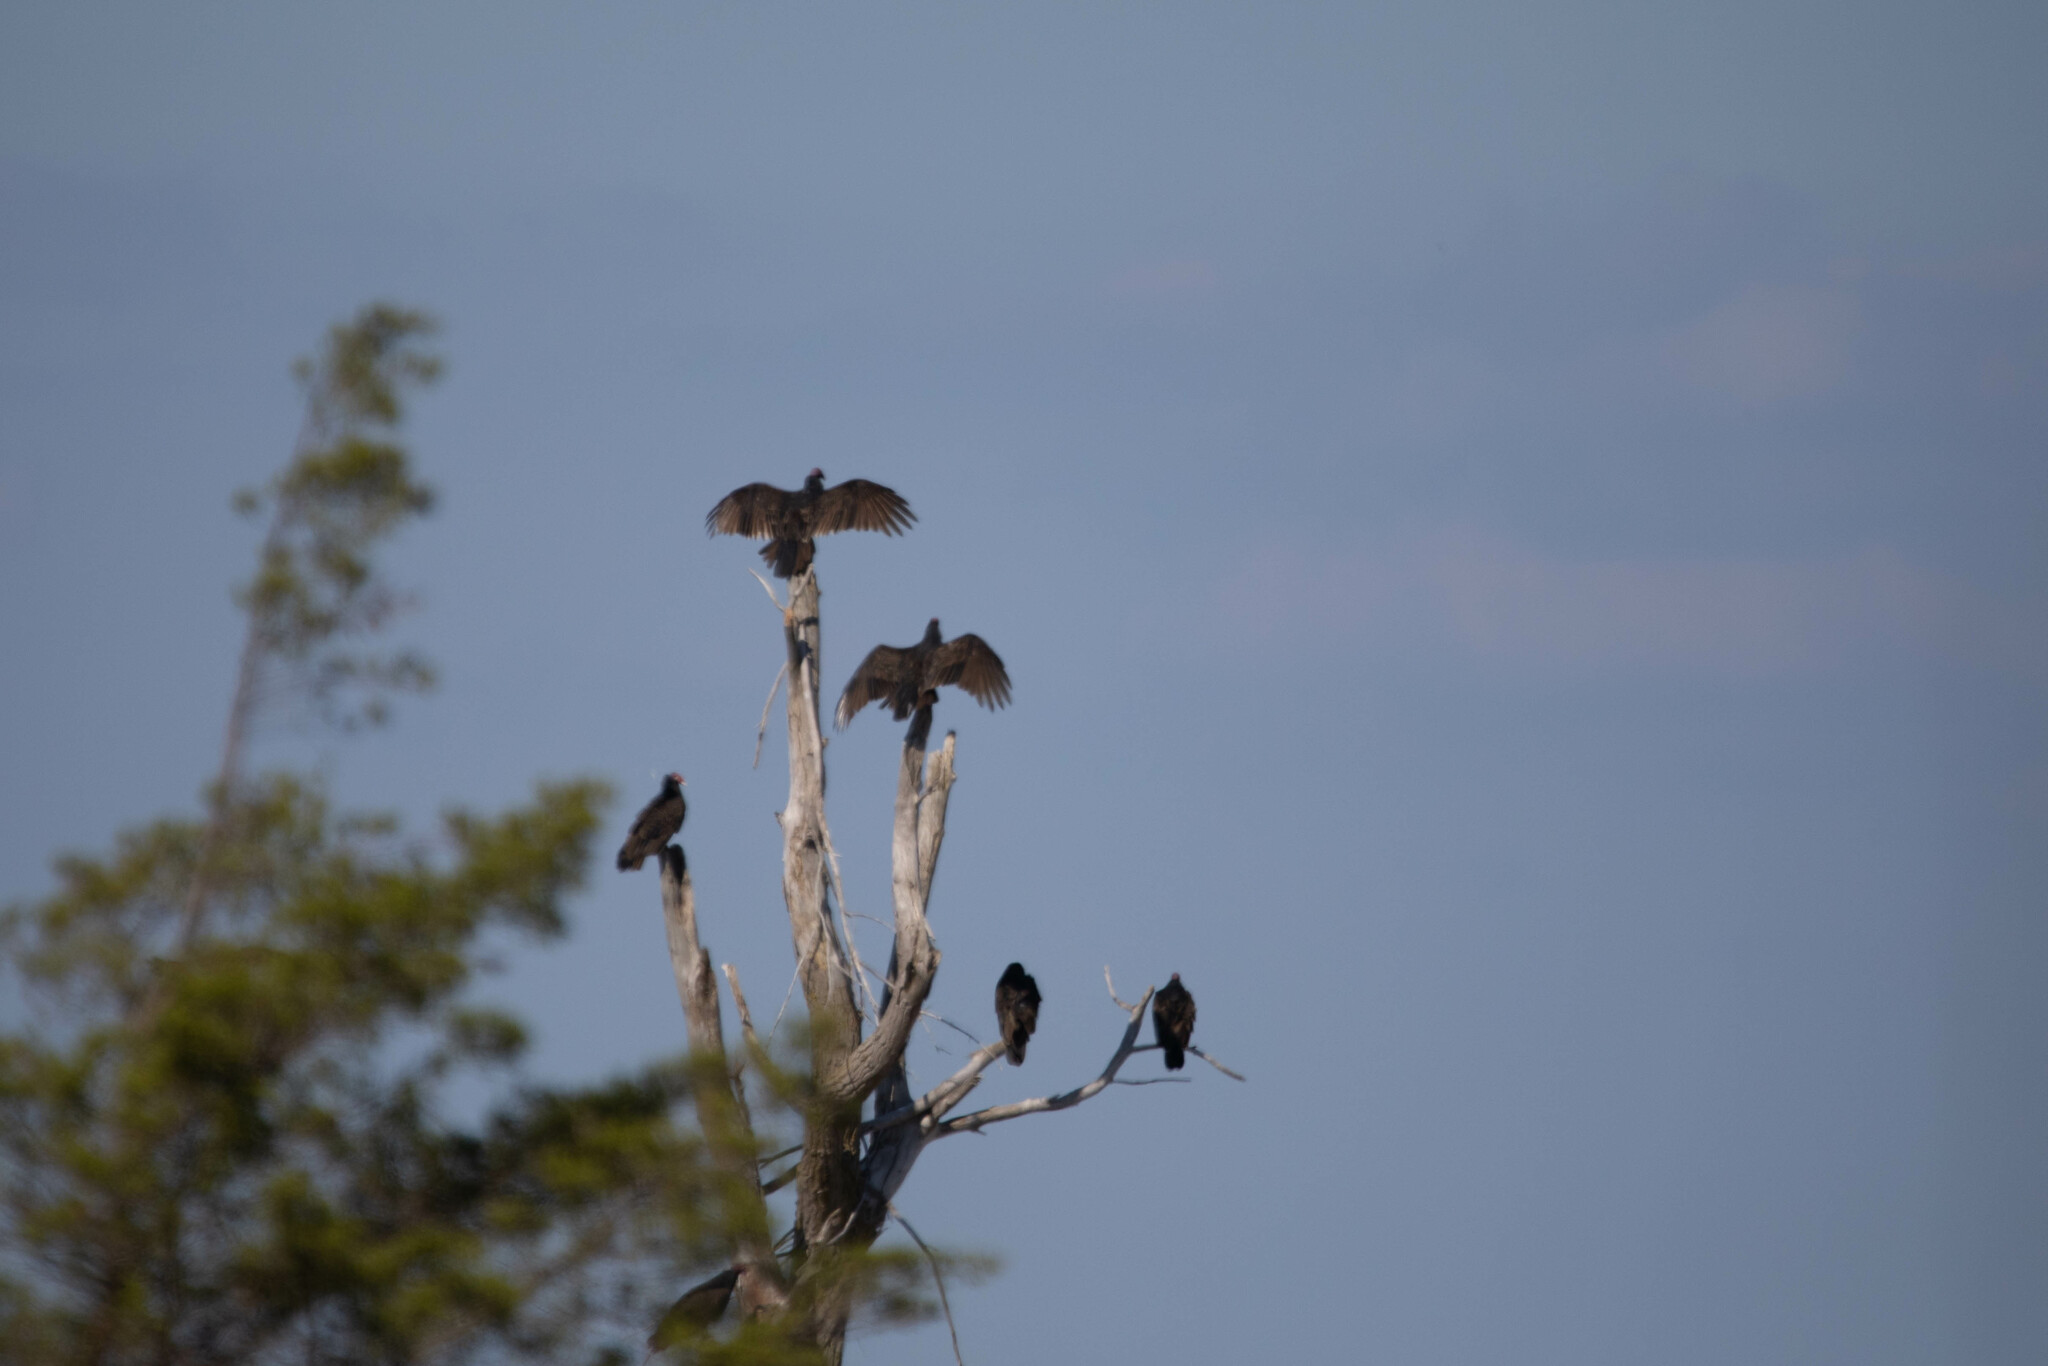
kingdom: Animalia
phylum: Chordata
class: Aves
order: Accipitriformes
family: Cathartidae
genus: Cathartes
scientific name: Cathartes aura
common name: Turkey vulture
